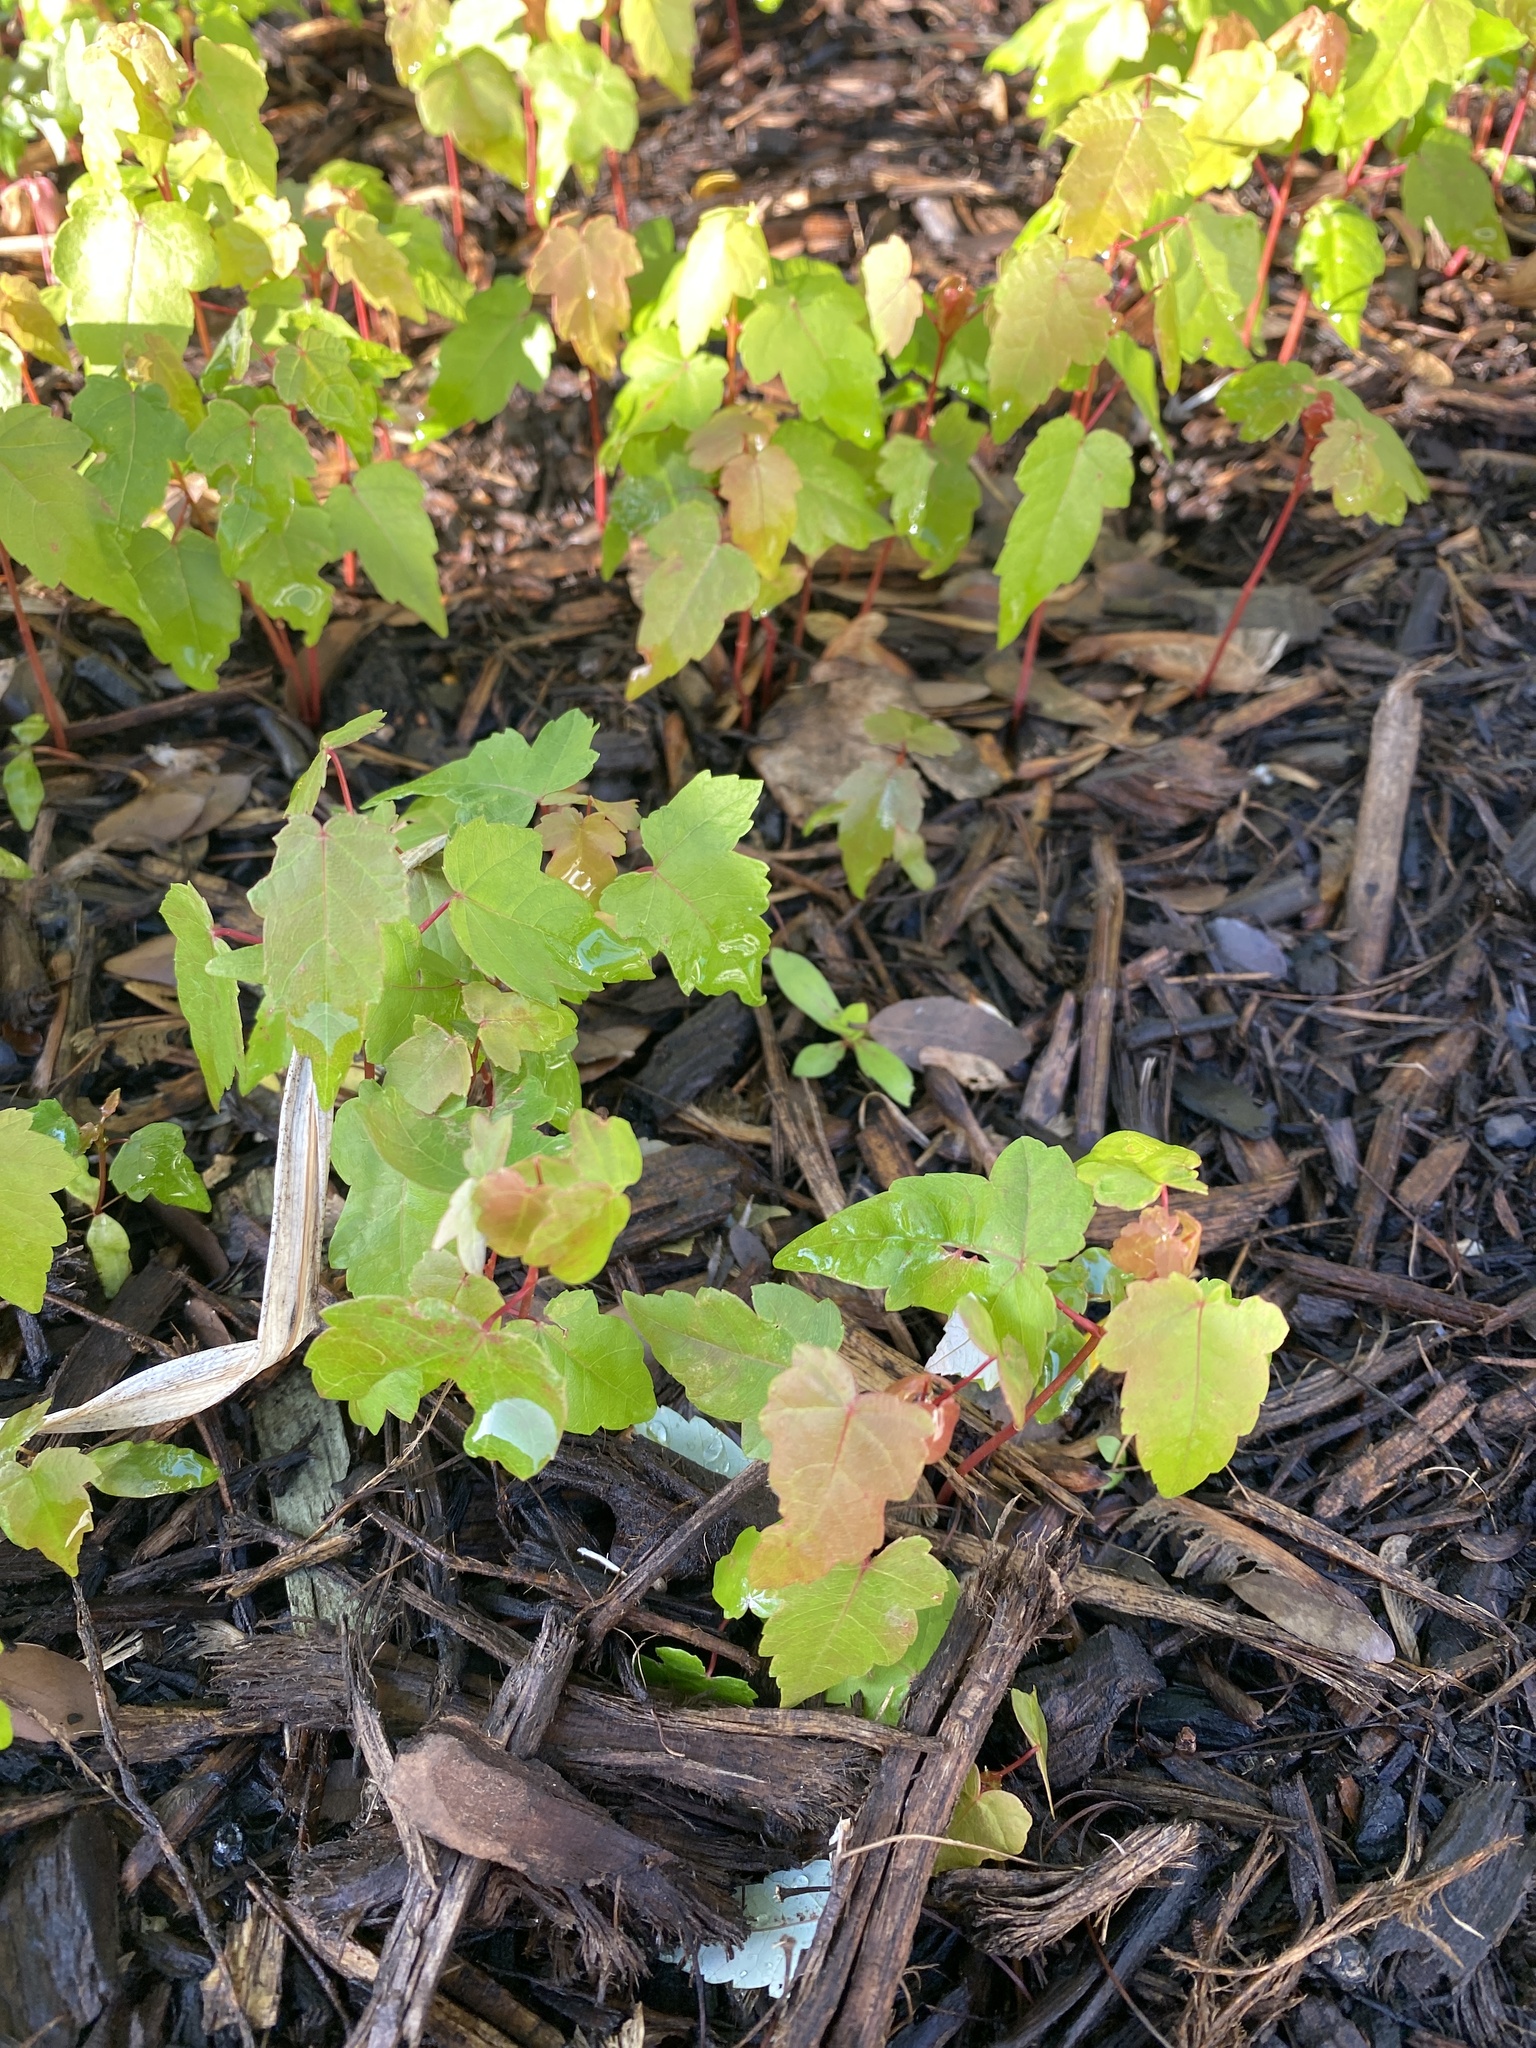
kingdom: Plantae
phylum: Tracheophyta
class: Magnoliopsida
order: Sapindales
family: Sapindaceae
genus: Acer
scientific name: Acer rubrum
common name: Red maple
